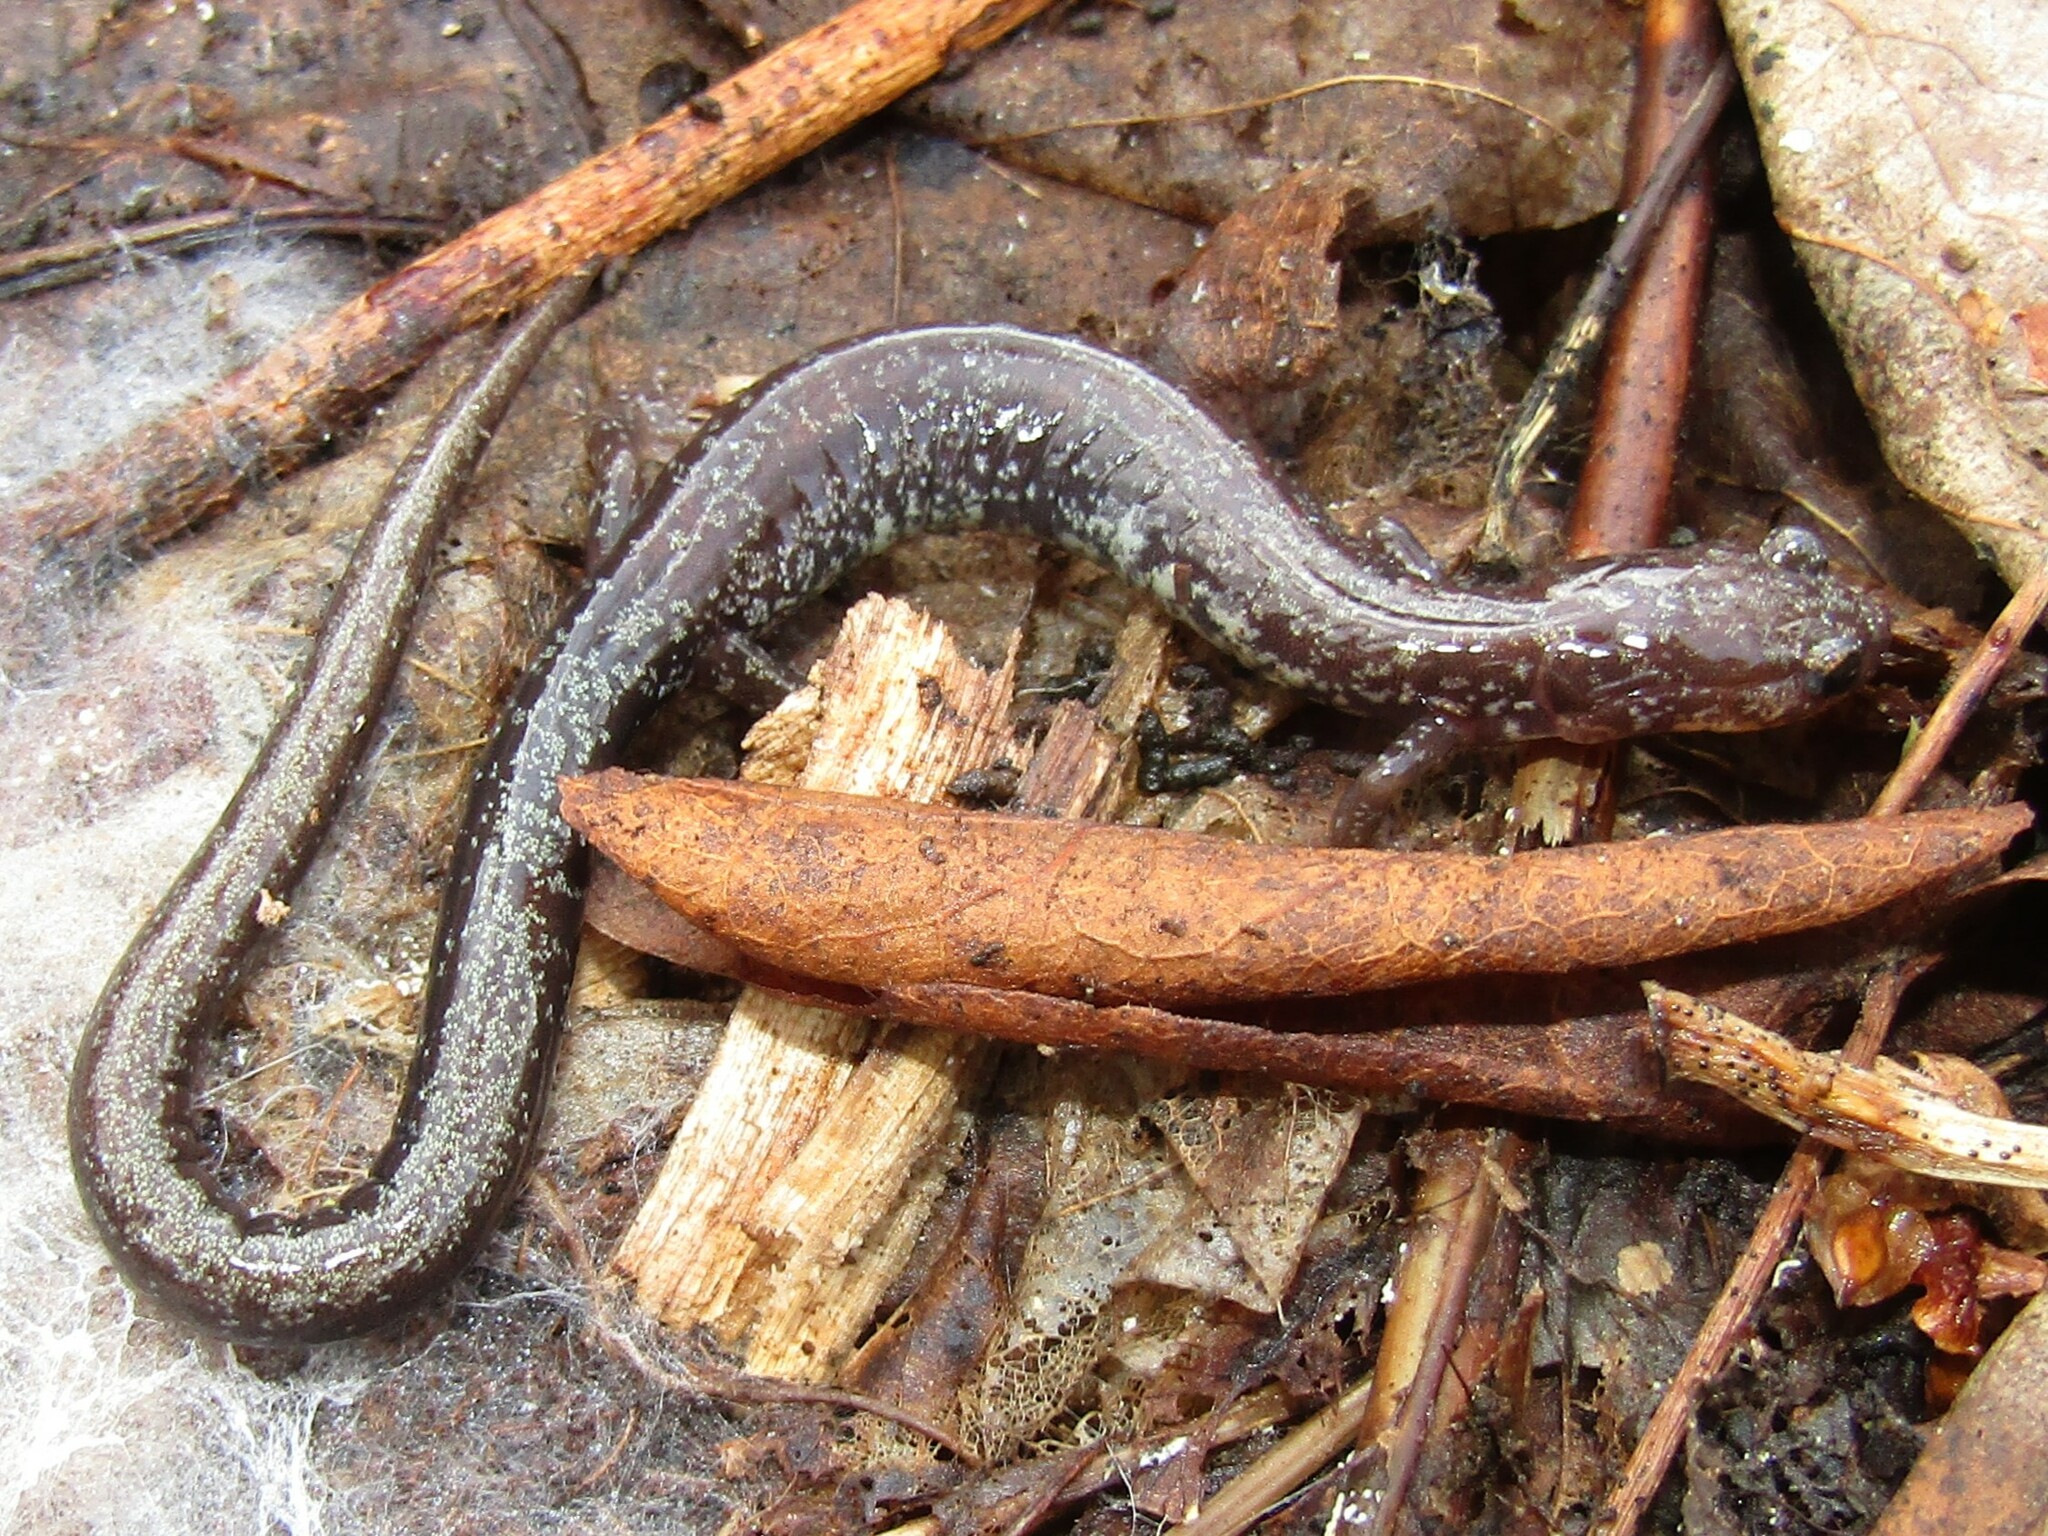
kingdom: Animalia
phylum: Chordata
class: Amphibia
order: Caudata
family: Plethodontidae
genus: Plethodon
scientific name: Plethodon virginia
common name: Shenandoah mountain salamander
